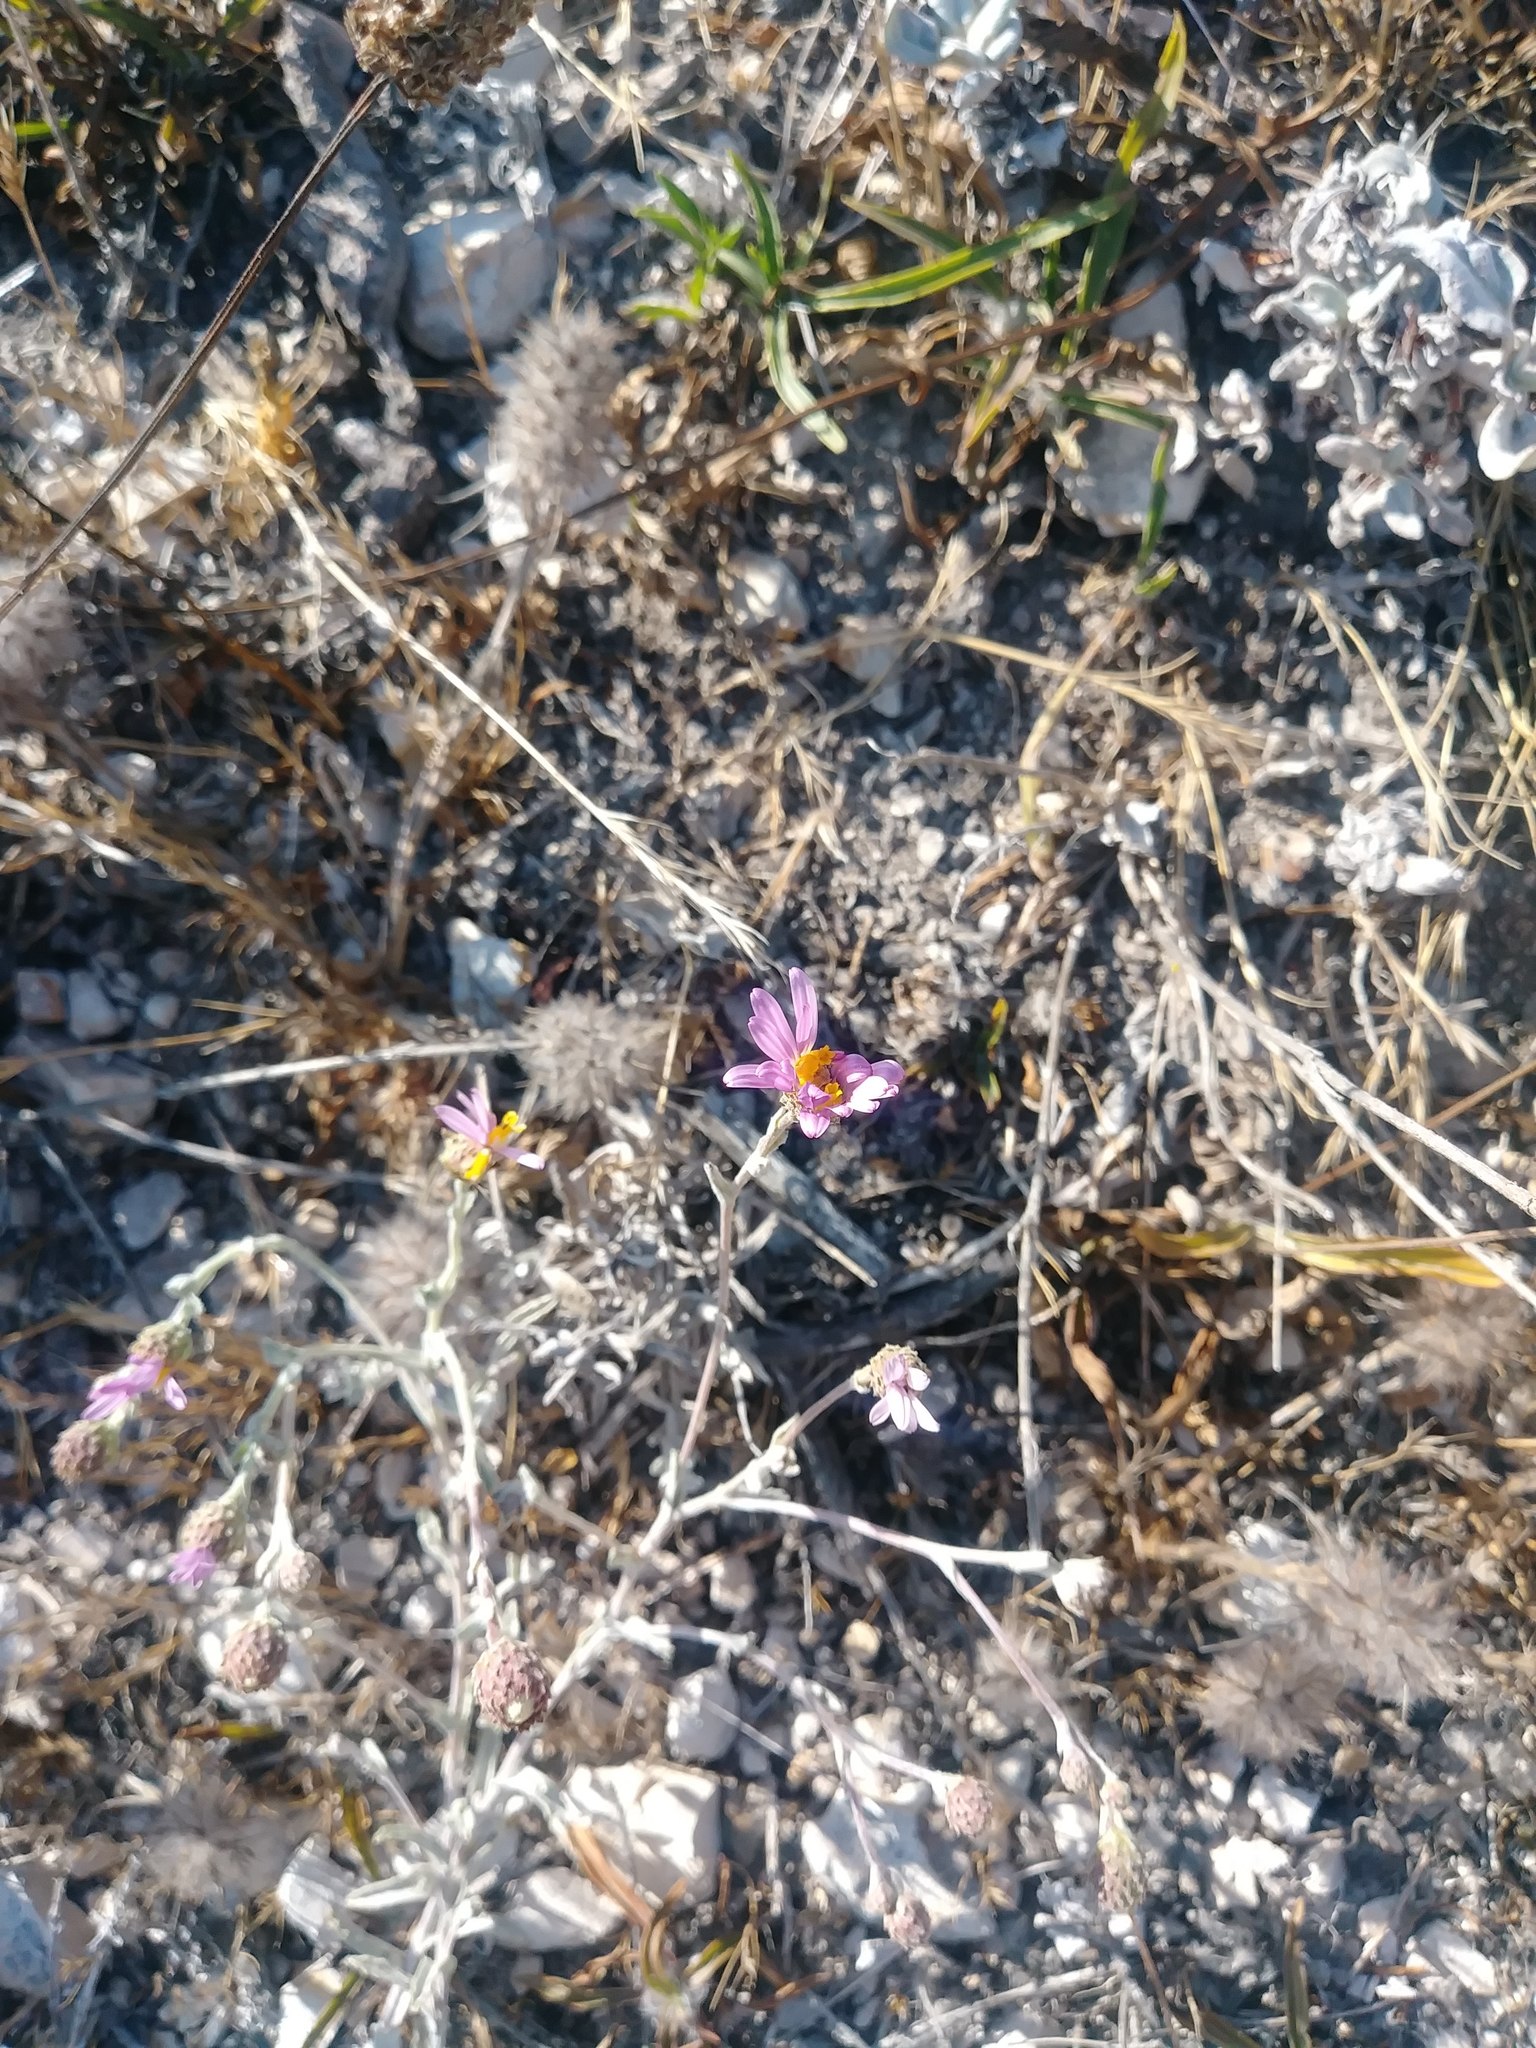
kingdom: Plantae
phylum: Tracheophyta
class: Magnoliopsida
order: Asterales
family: Asteraceae
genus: Corethrogyne
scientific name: Corethrogyne filaginifolia
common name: Sand-aster
